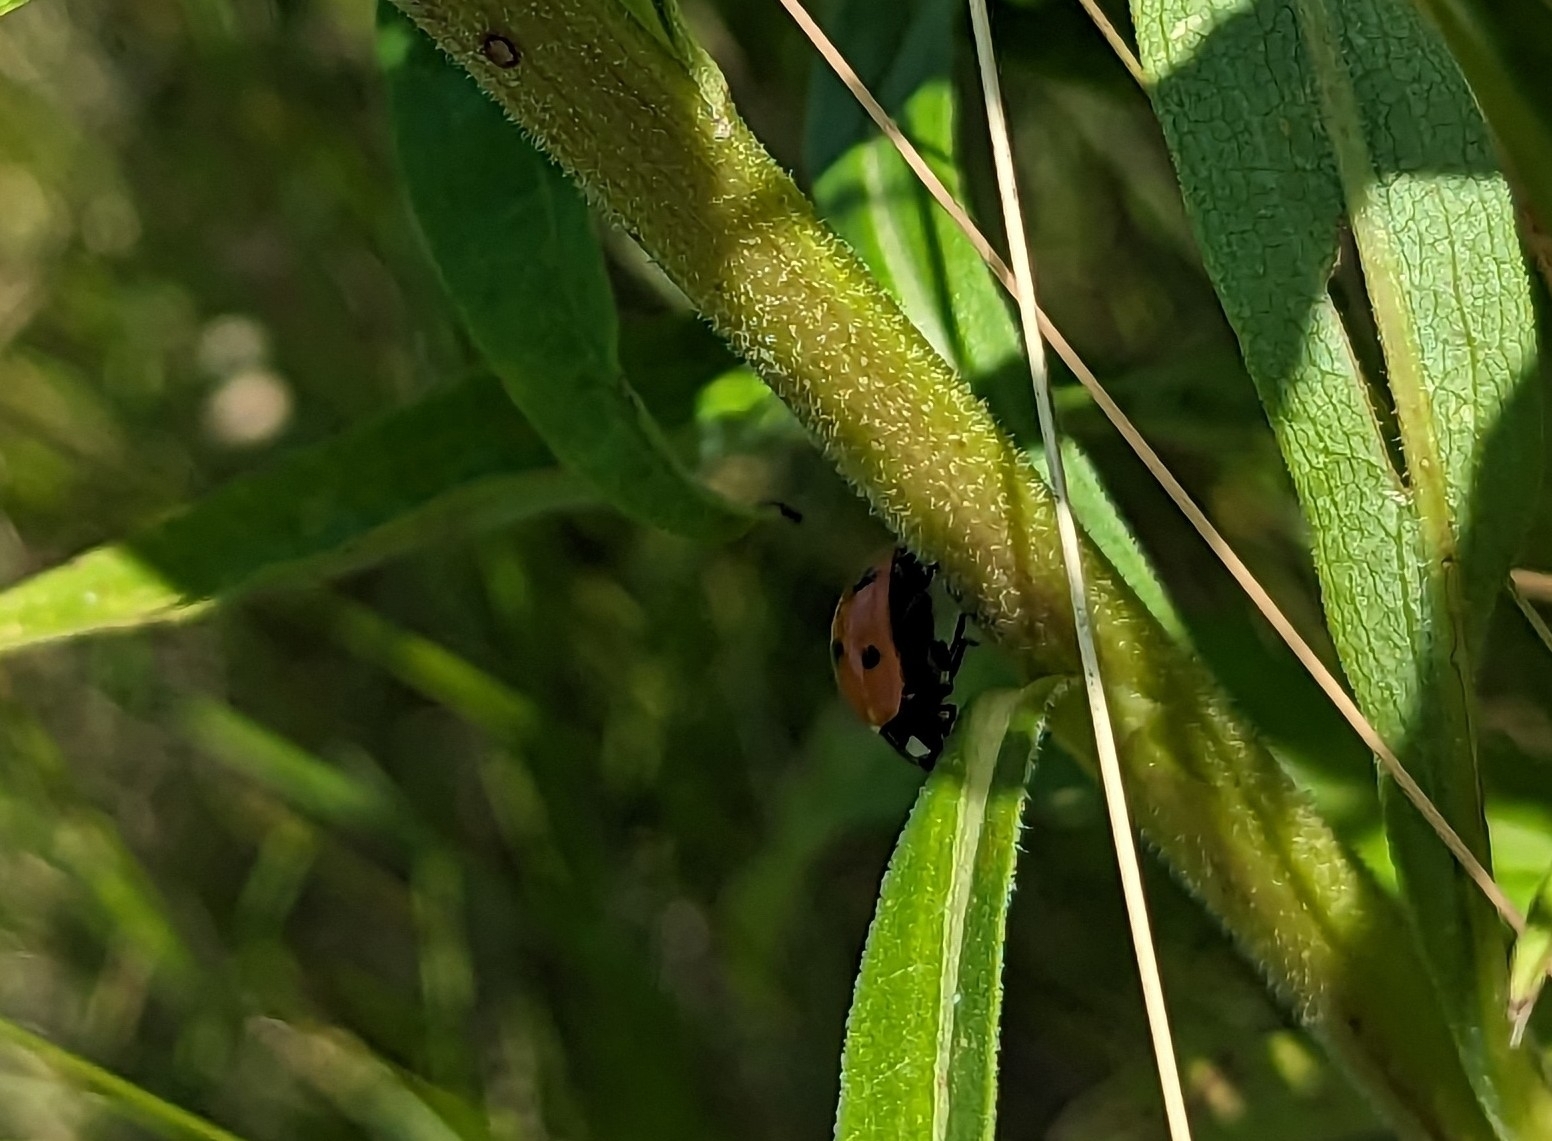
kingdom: Animalia
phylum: Arthropoda
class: Insecta
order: Coleoptera
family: Coccinellidae
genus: Coccinella
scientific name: Coccinella septempunctata
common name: Sevenspotted lady beetle
